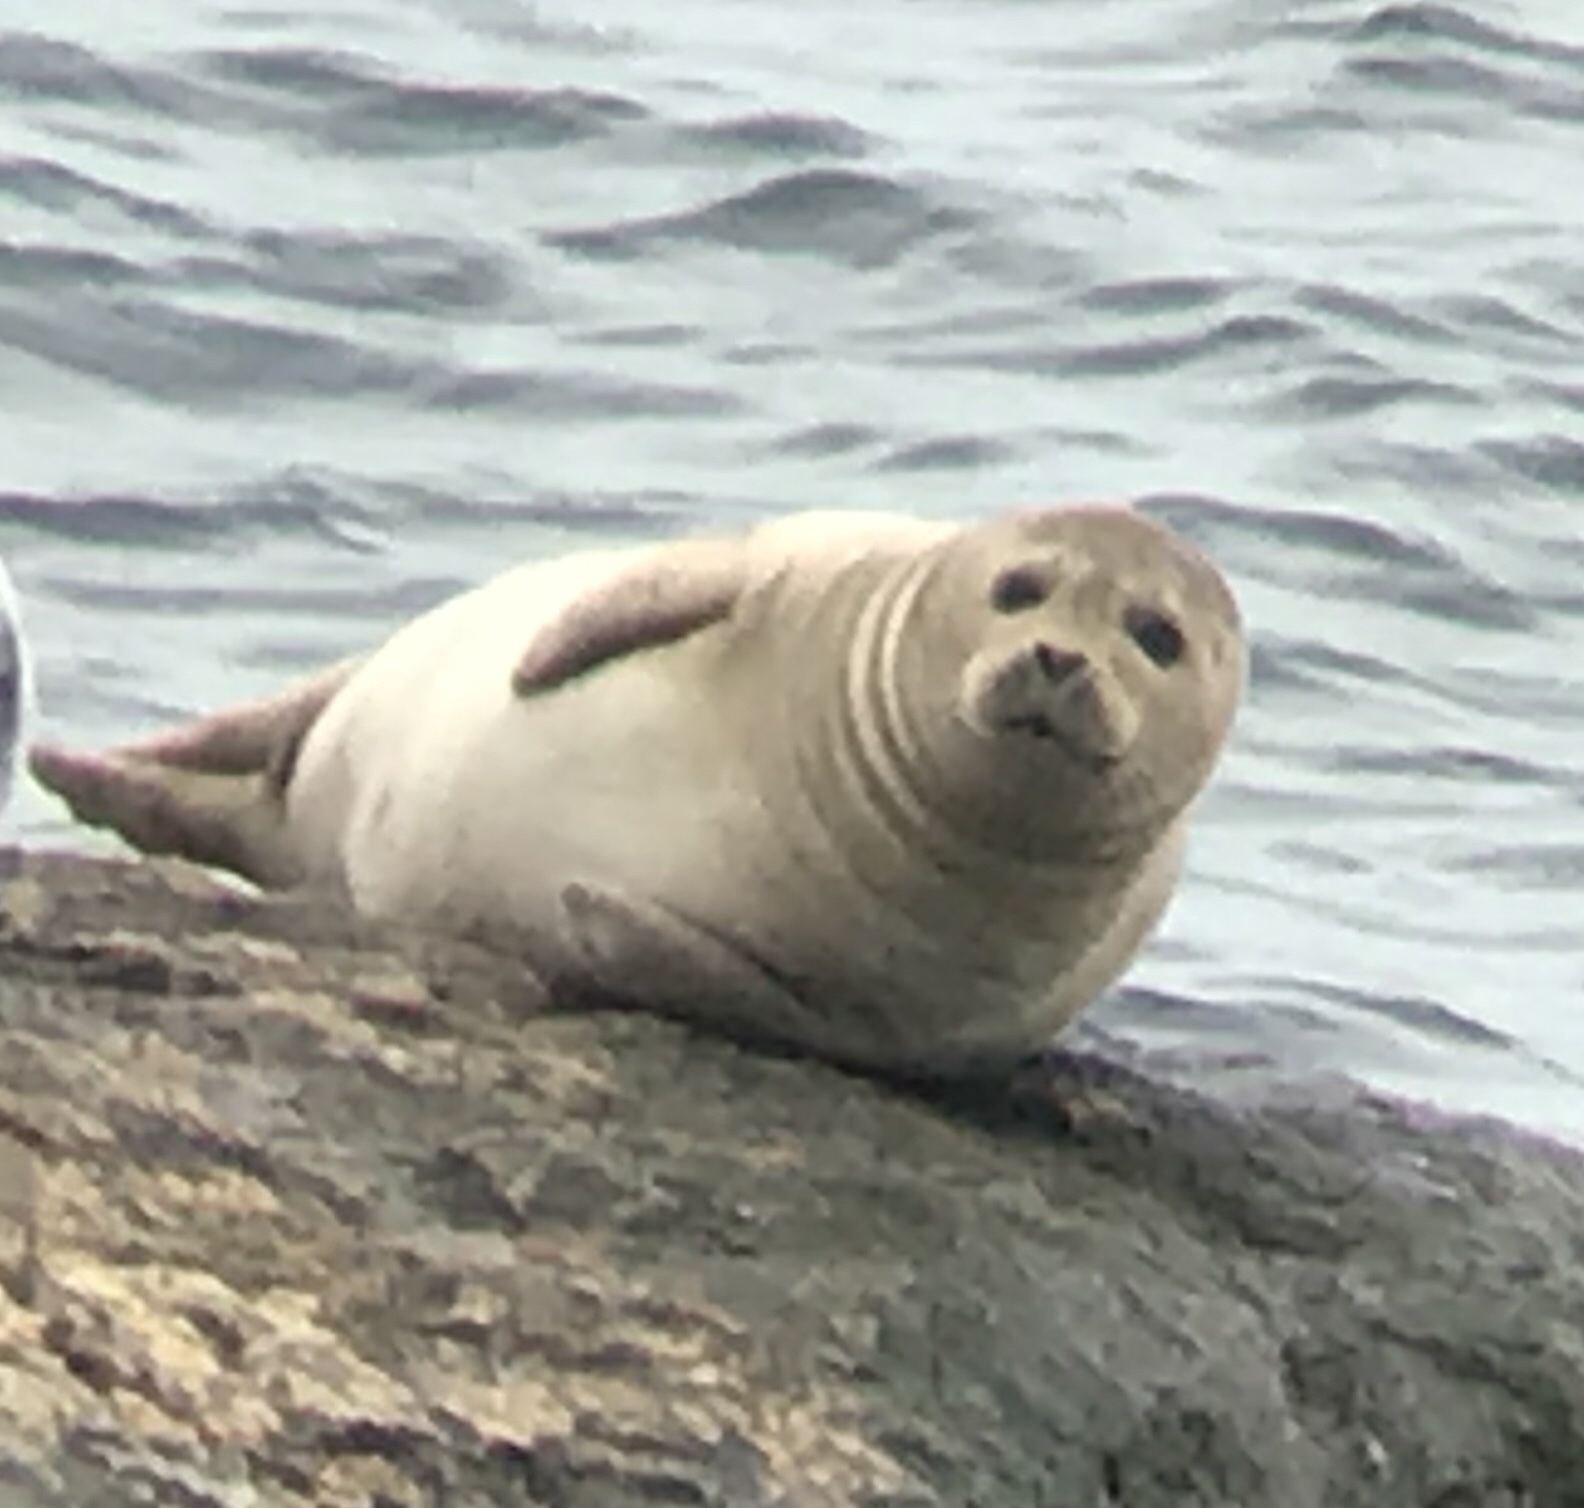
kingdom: Animalia
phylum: Chordata
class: Mammalia
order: Carnivora
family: Phocidae
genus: Phoca
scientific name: Phoca vitulina
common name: Harbor seal
